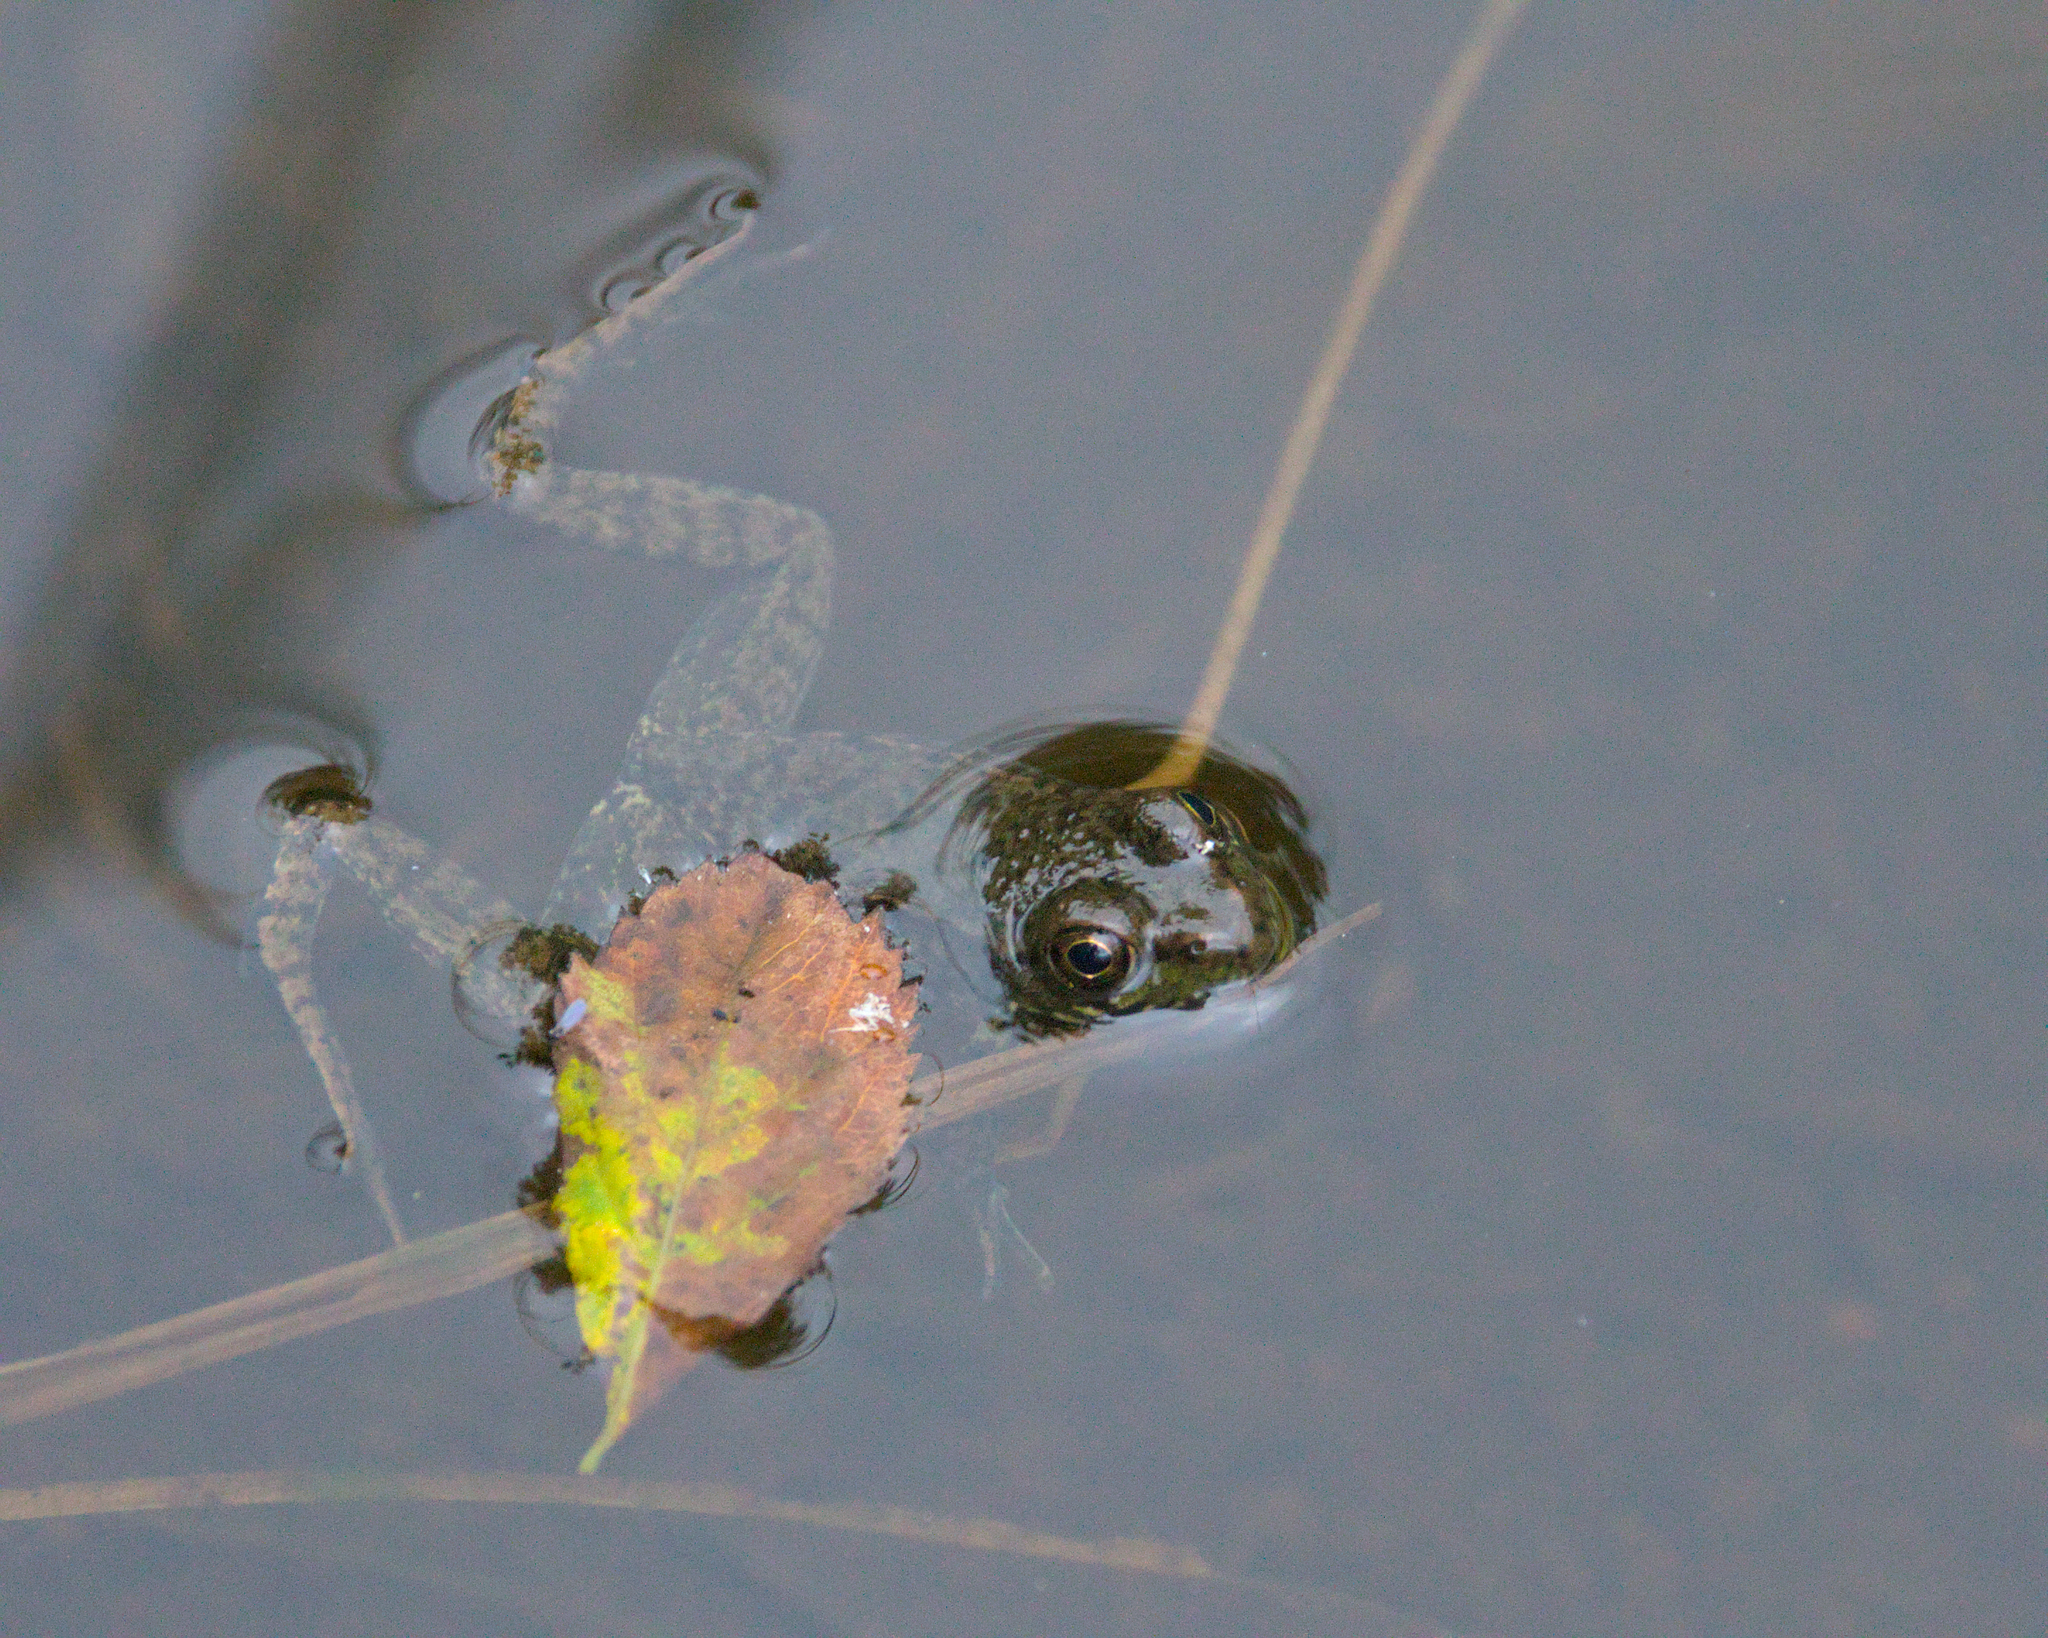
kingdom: Animalia
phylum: Chordata
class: Amphibia
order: Anura
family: Ranidae
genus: Lithobates
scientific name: Lithobates clamitans
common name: Green frog
